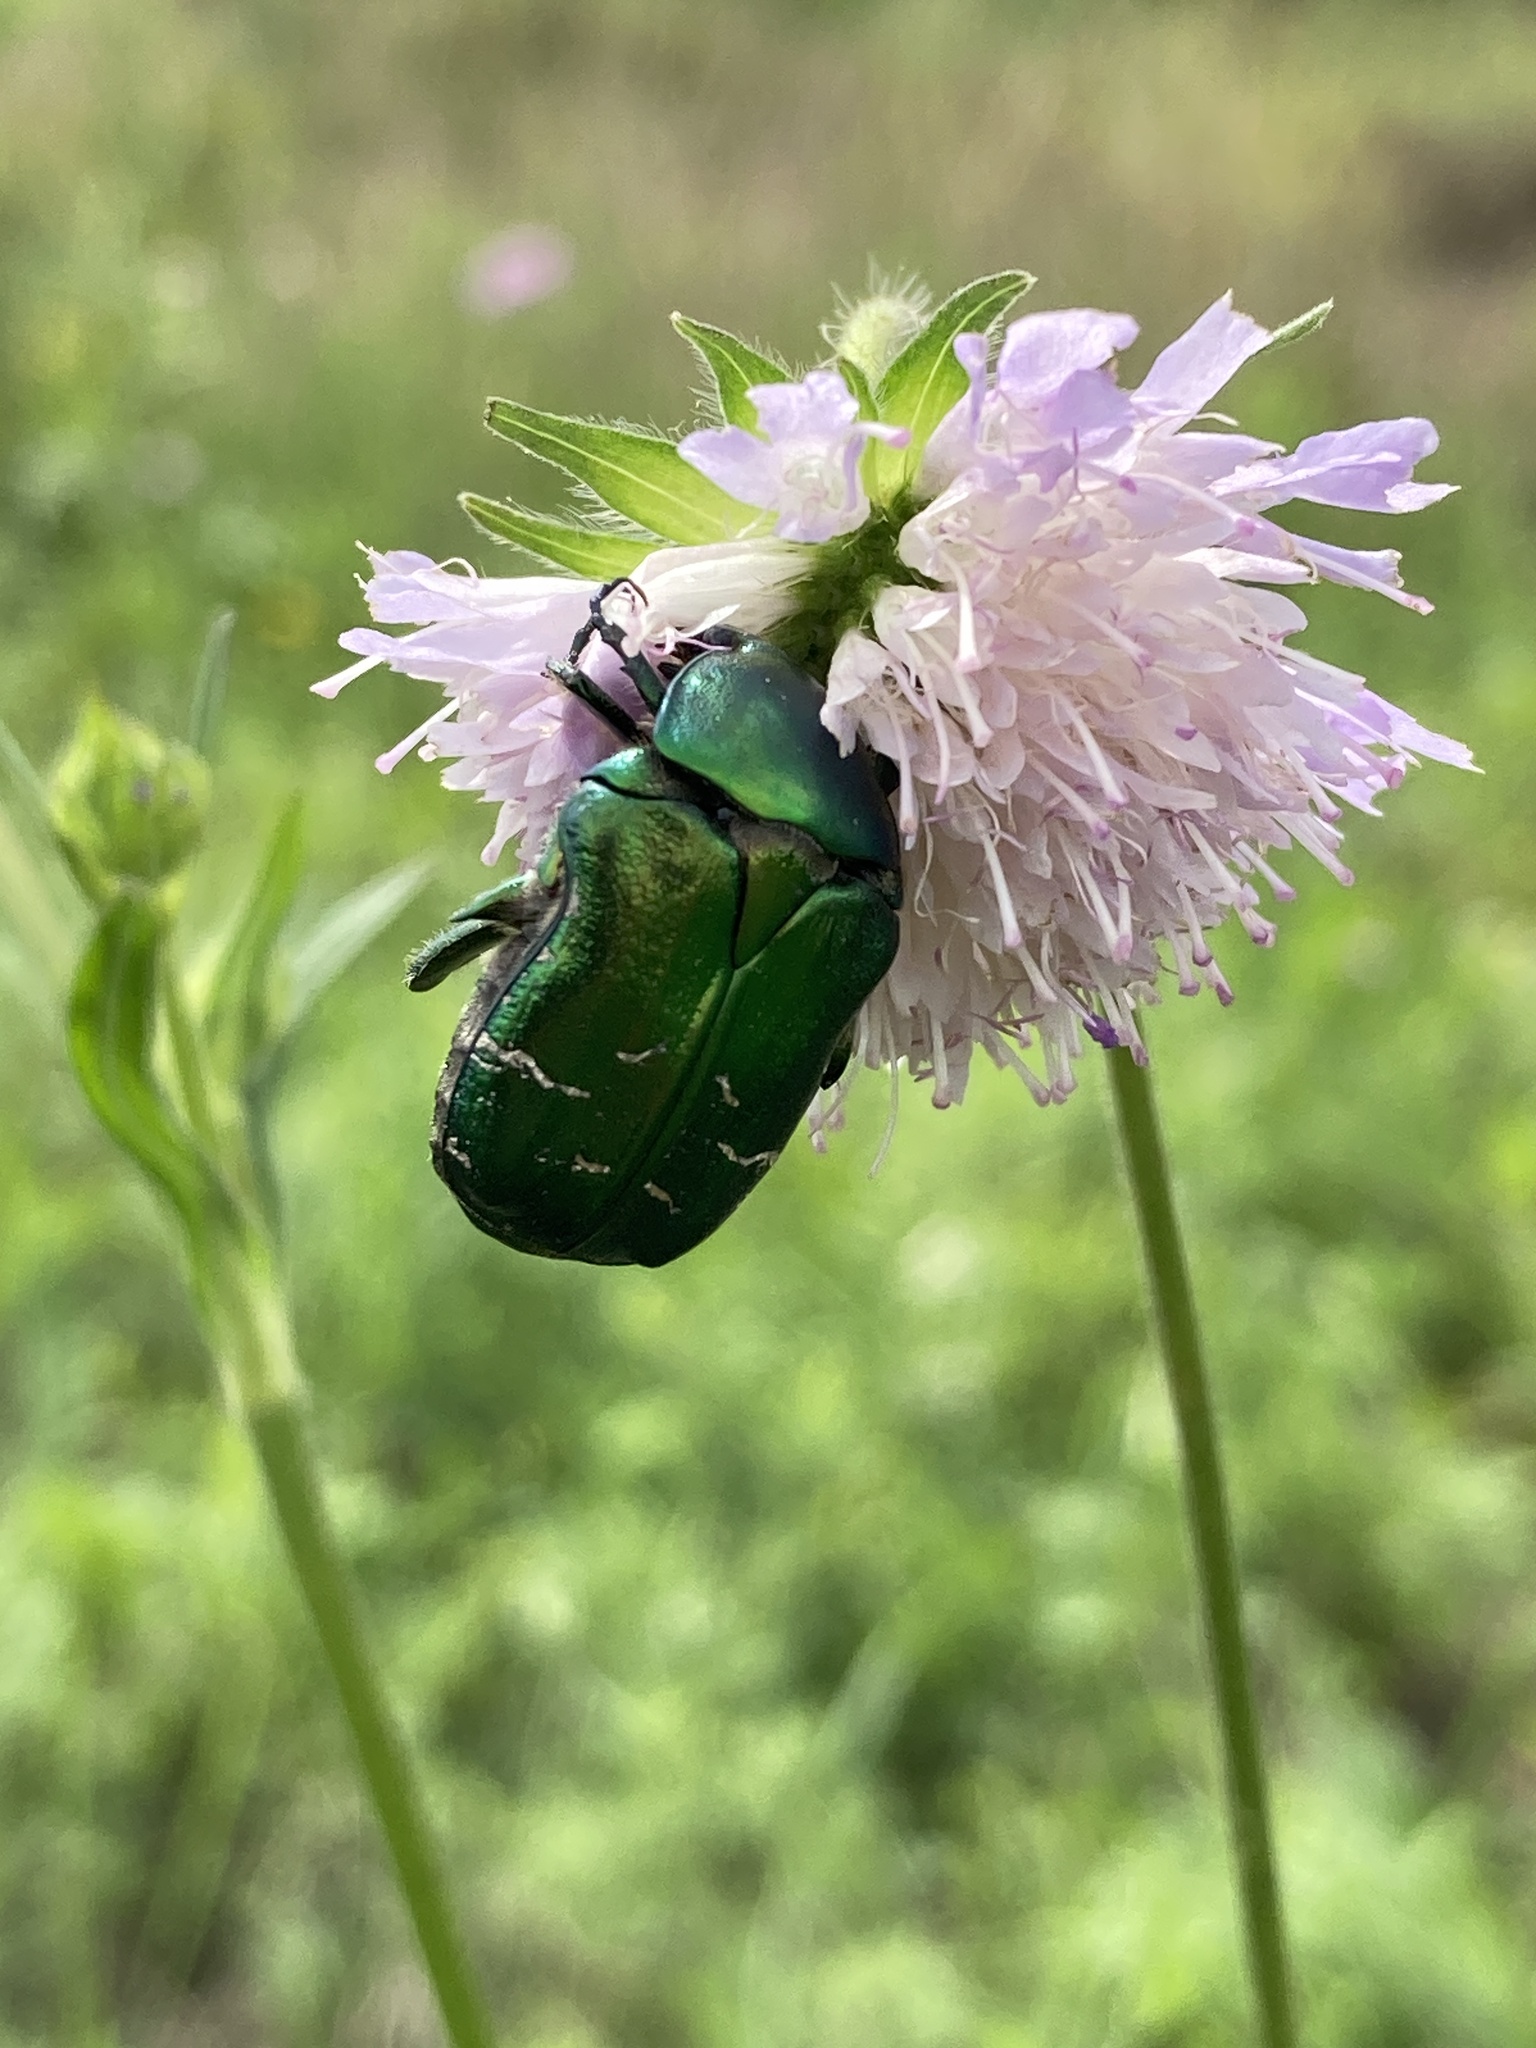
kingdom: Animalia
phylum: Arthropoda
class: Insecta
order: Coleoptera
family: Scarabaeidae
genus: Cetonia
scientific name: Cetonia aurata
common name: Rose chafer
